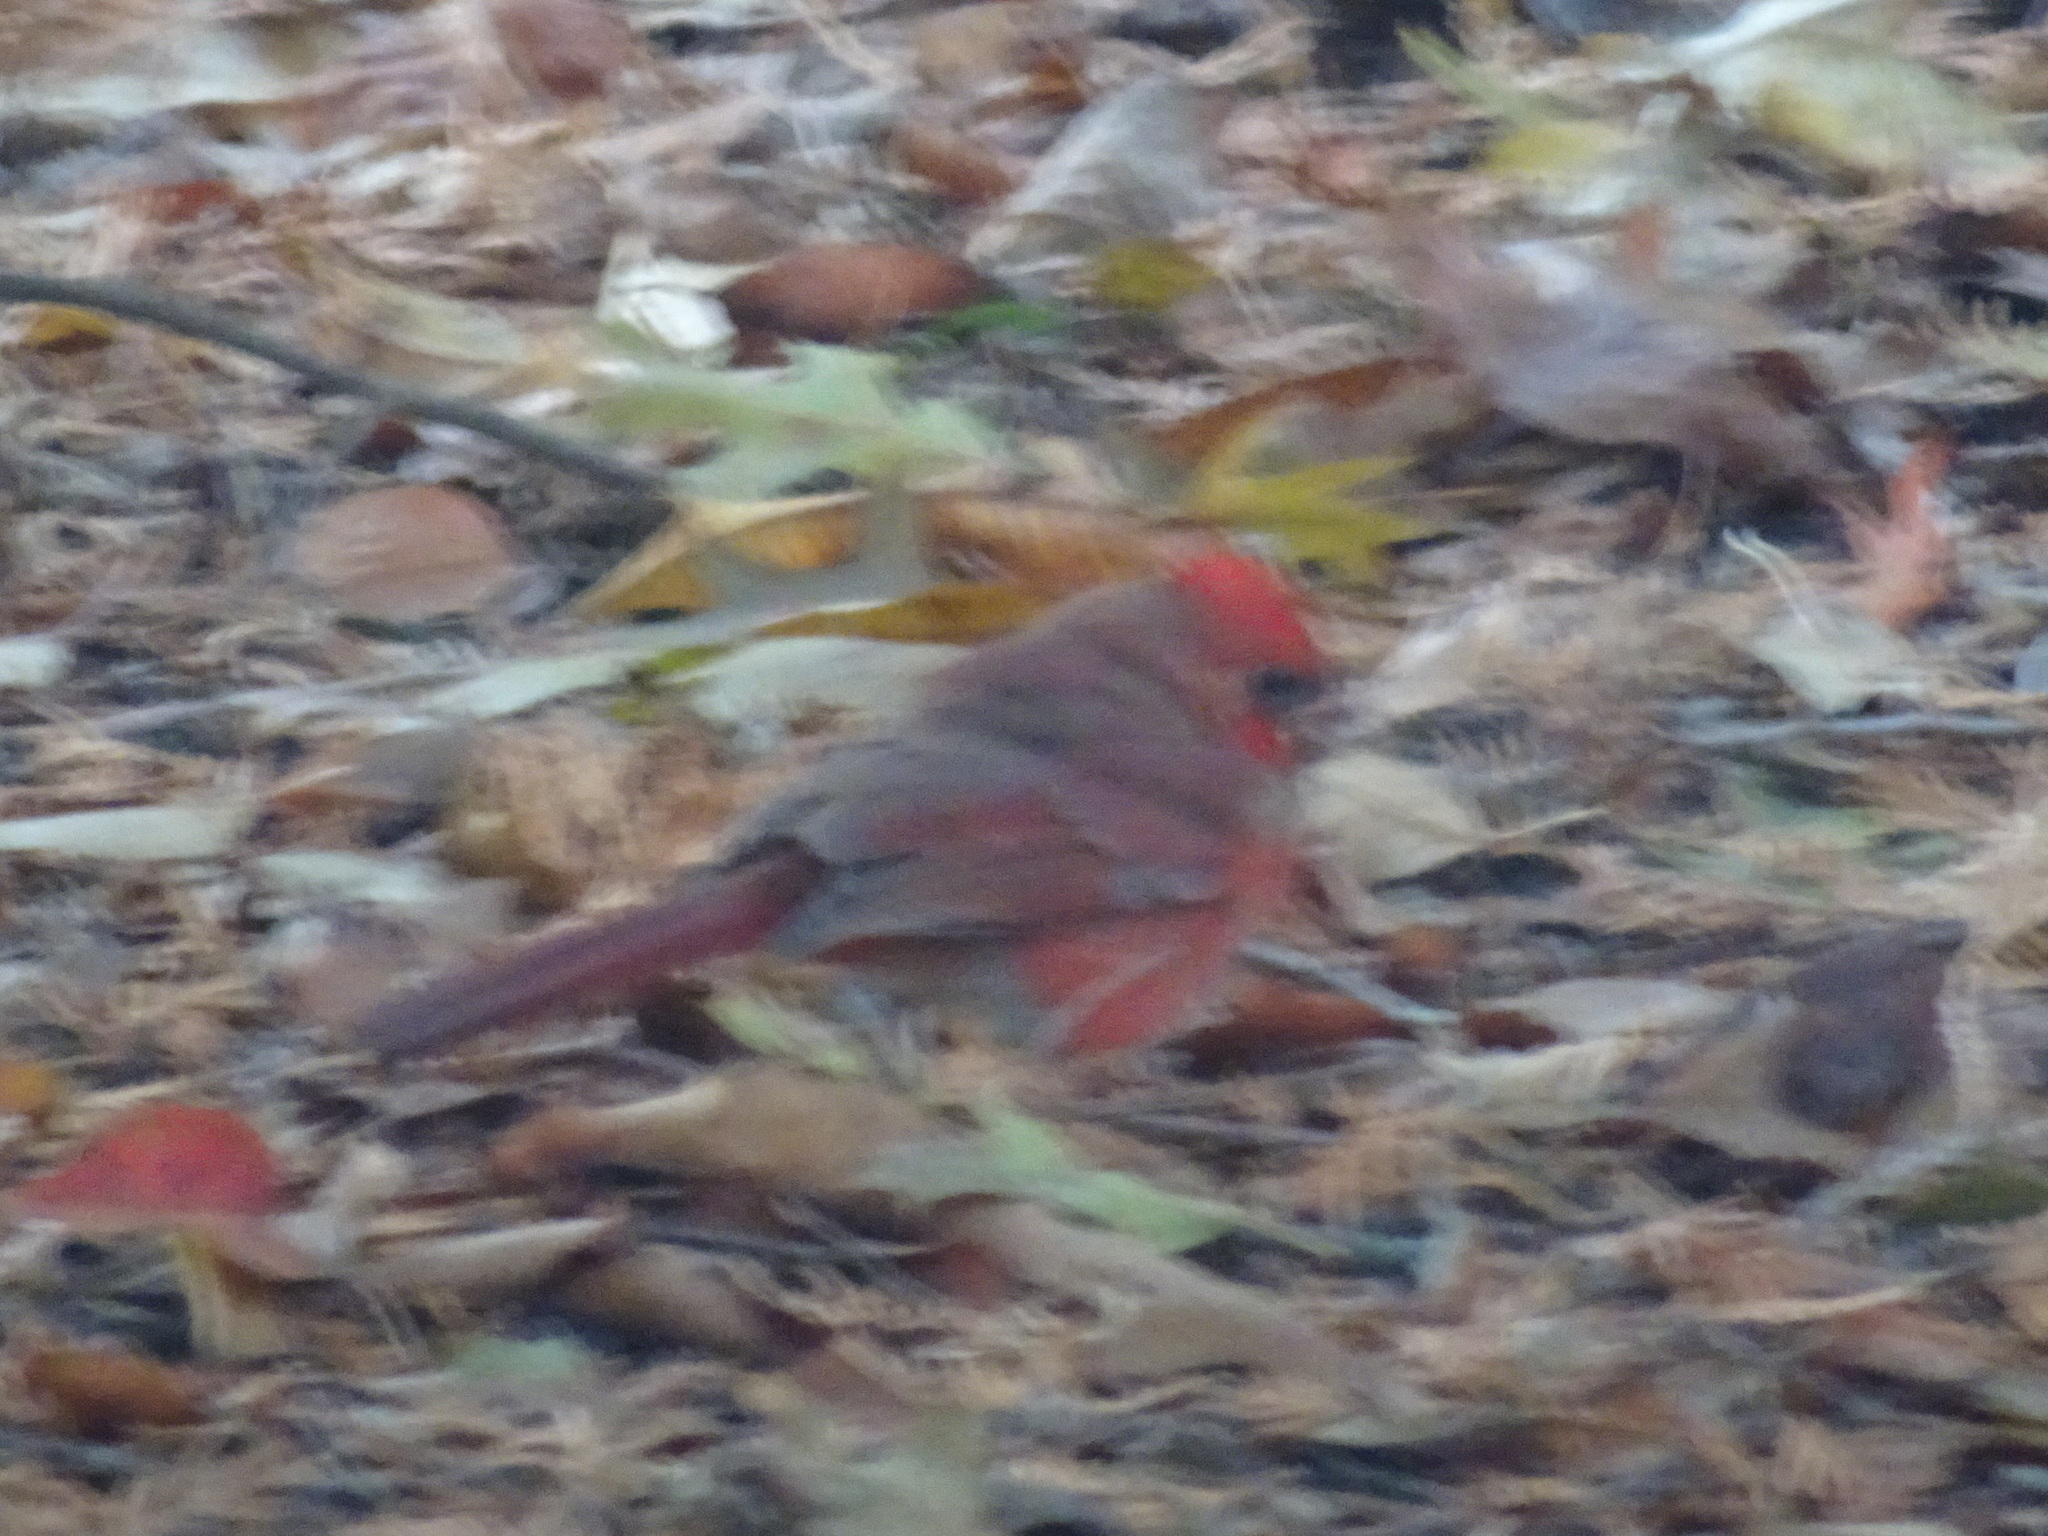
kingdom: Animalia
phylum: Chordata
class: Aves
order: Passeriformes
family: Cardinalidae
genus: Cardinalis
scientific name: Cardinalis cardinalis
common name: Northern cardinal
